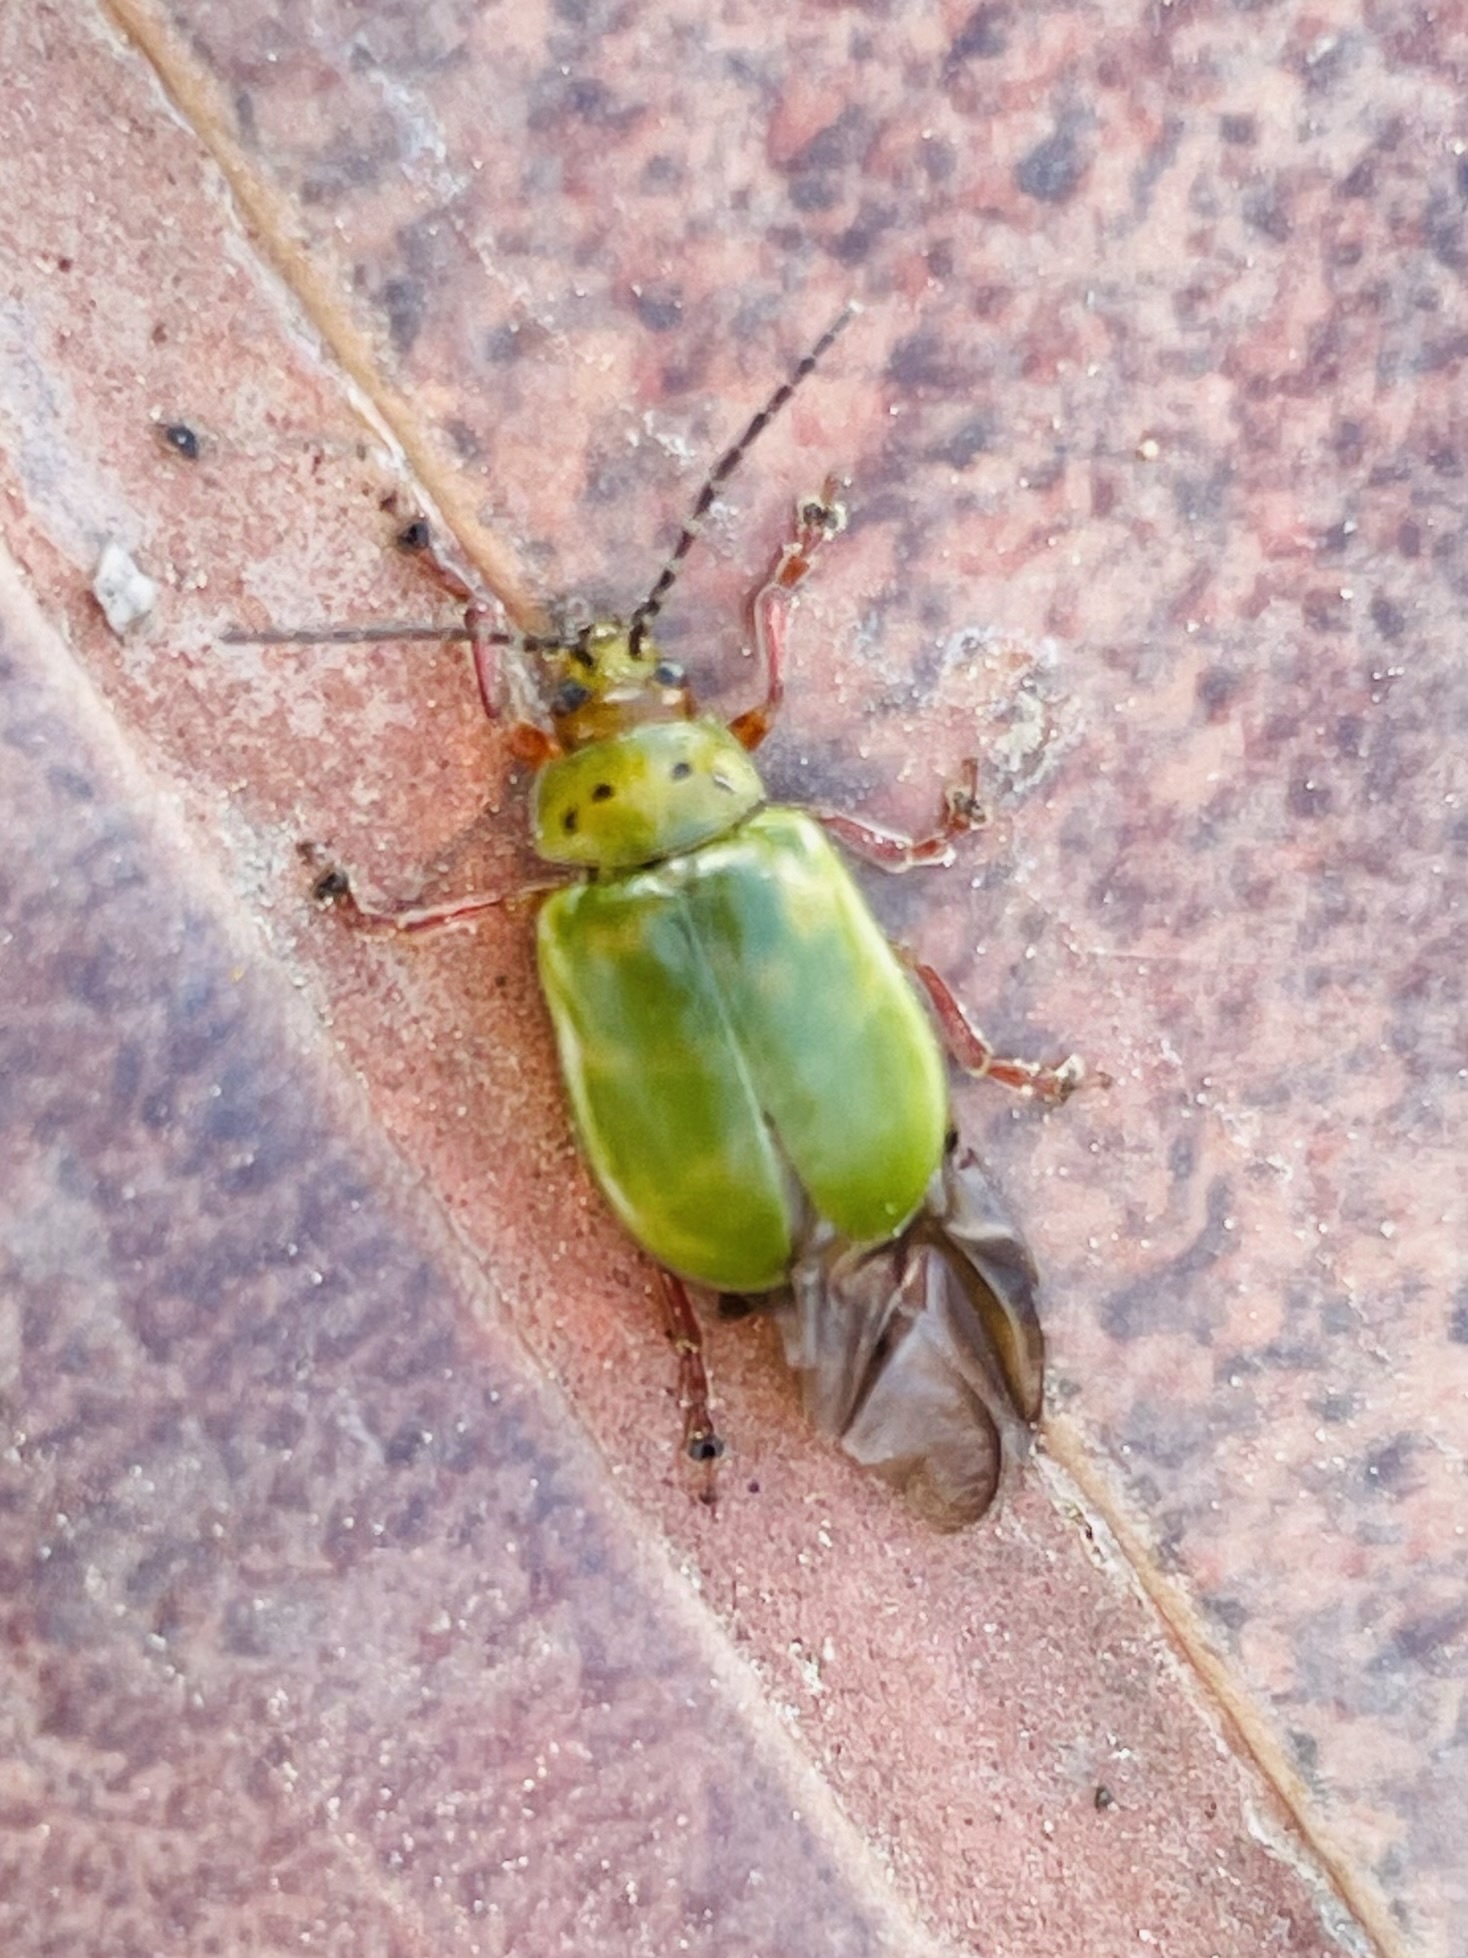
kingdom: Animalia
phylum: Arthropoda
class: Insecta
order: Coleoptera
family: Chrysomelidae
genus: Procalus
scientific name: Procalus
